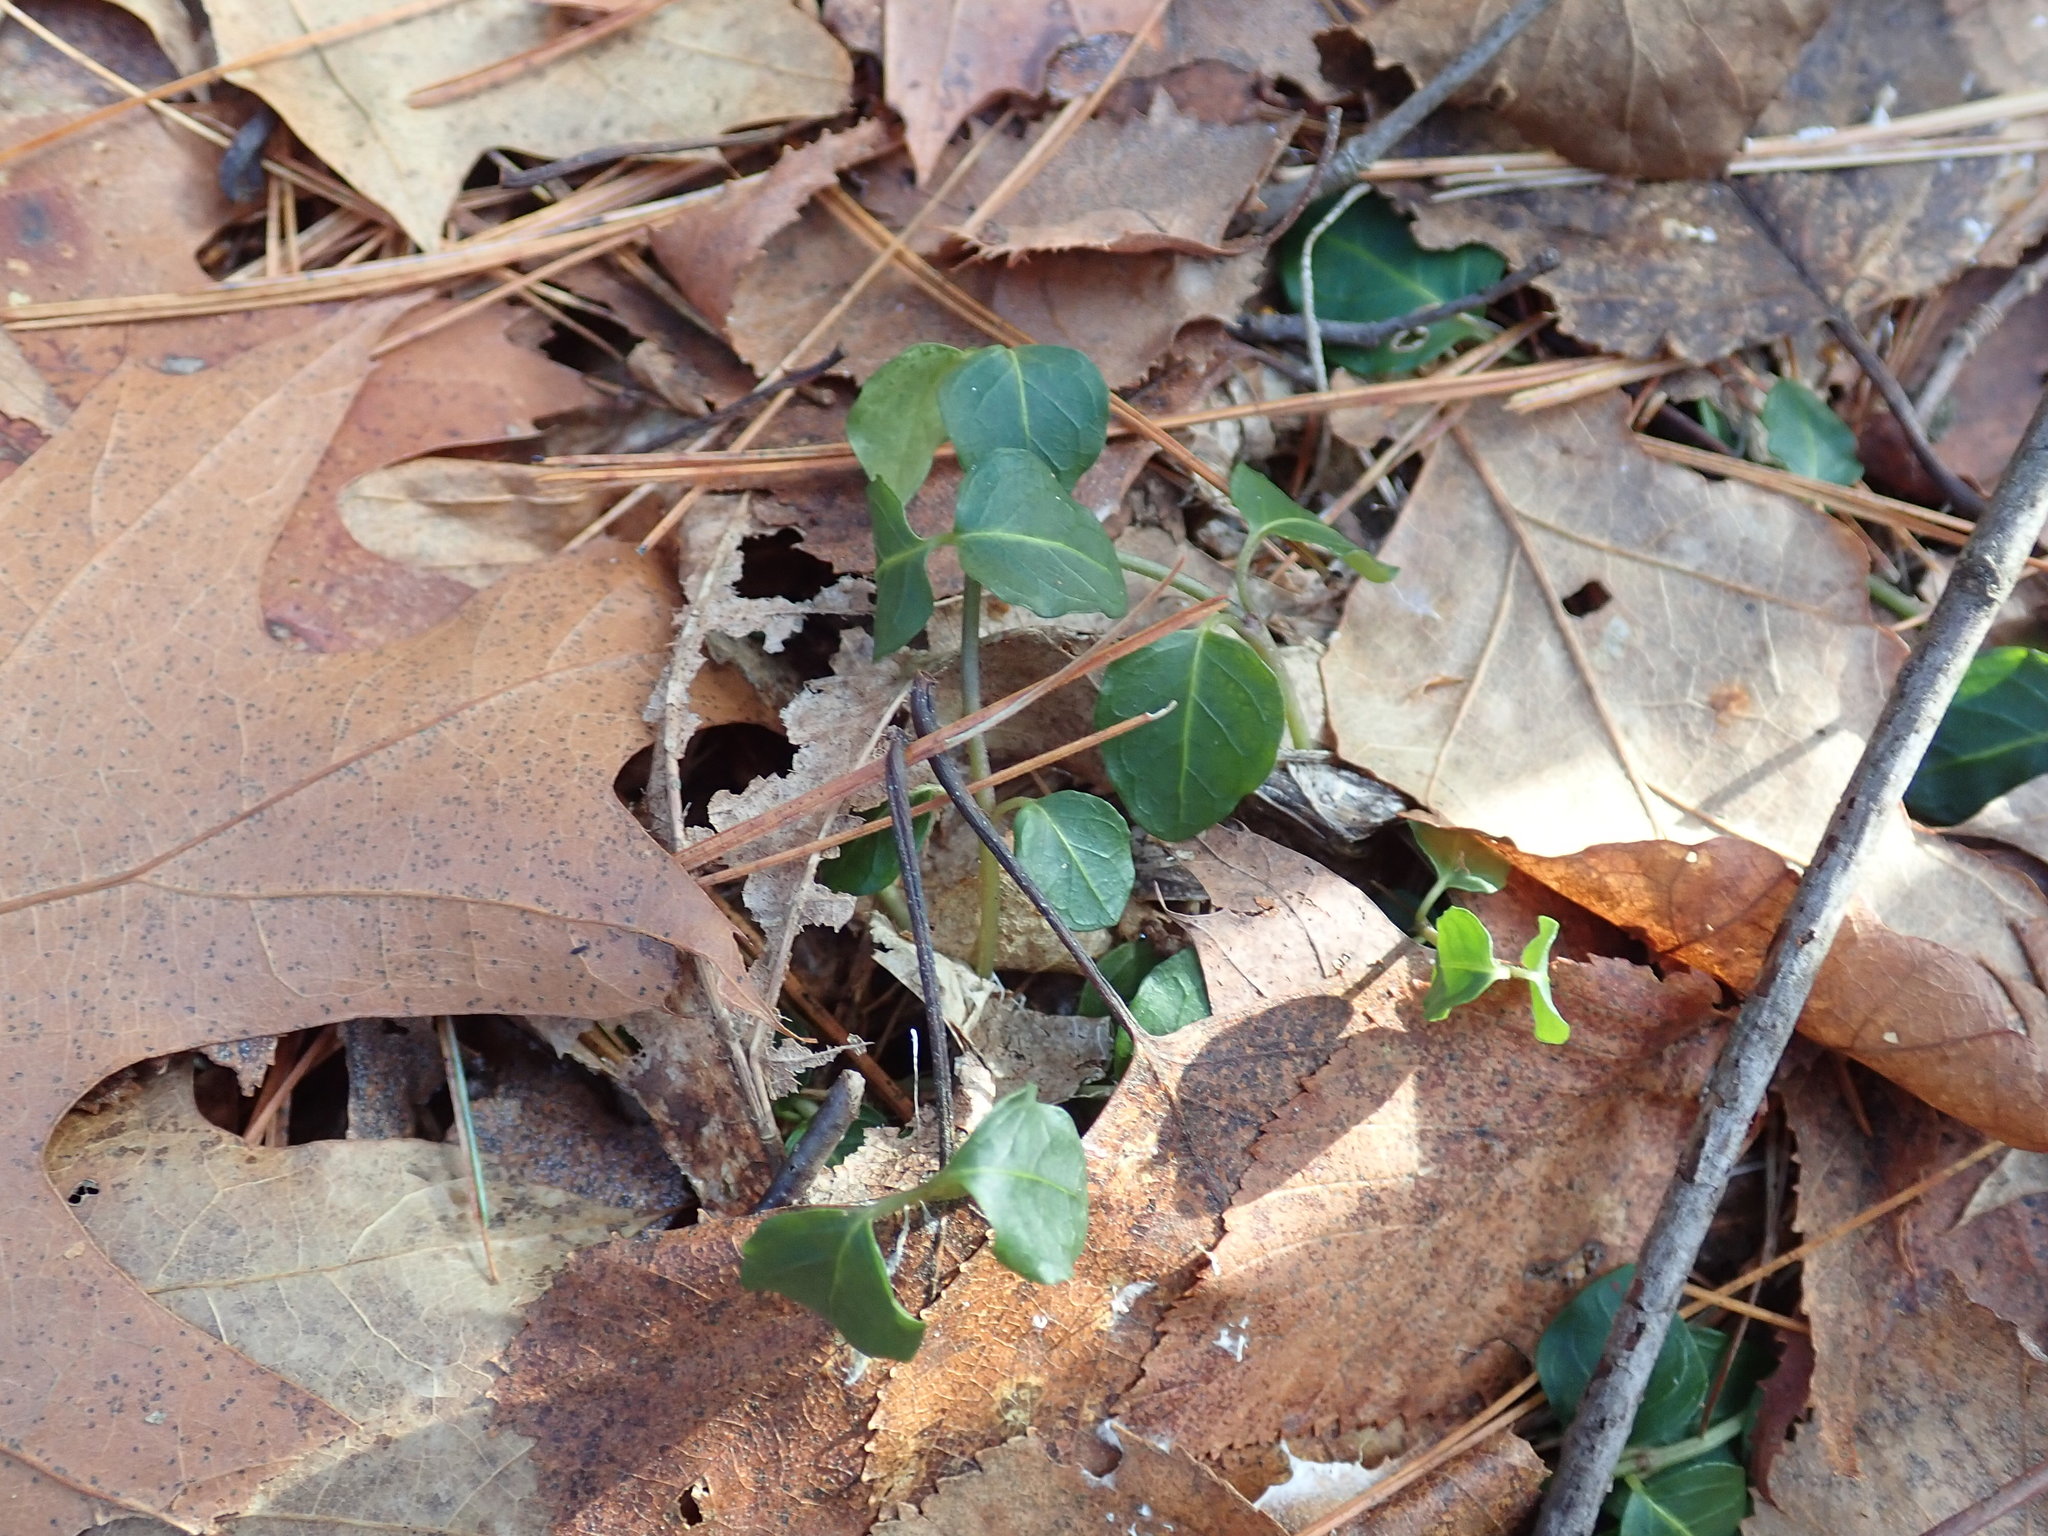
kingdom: Plantae
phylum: Tracheophyta
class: Magnoliopsida
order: Gentianales
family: Rubiaceae
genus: Mitchella
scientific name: Mitchella repens
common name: Partridge-berry
